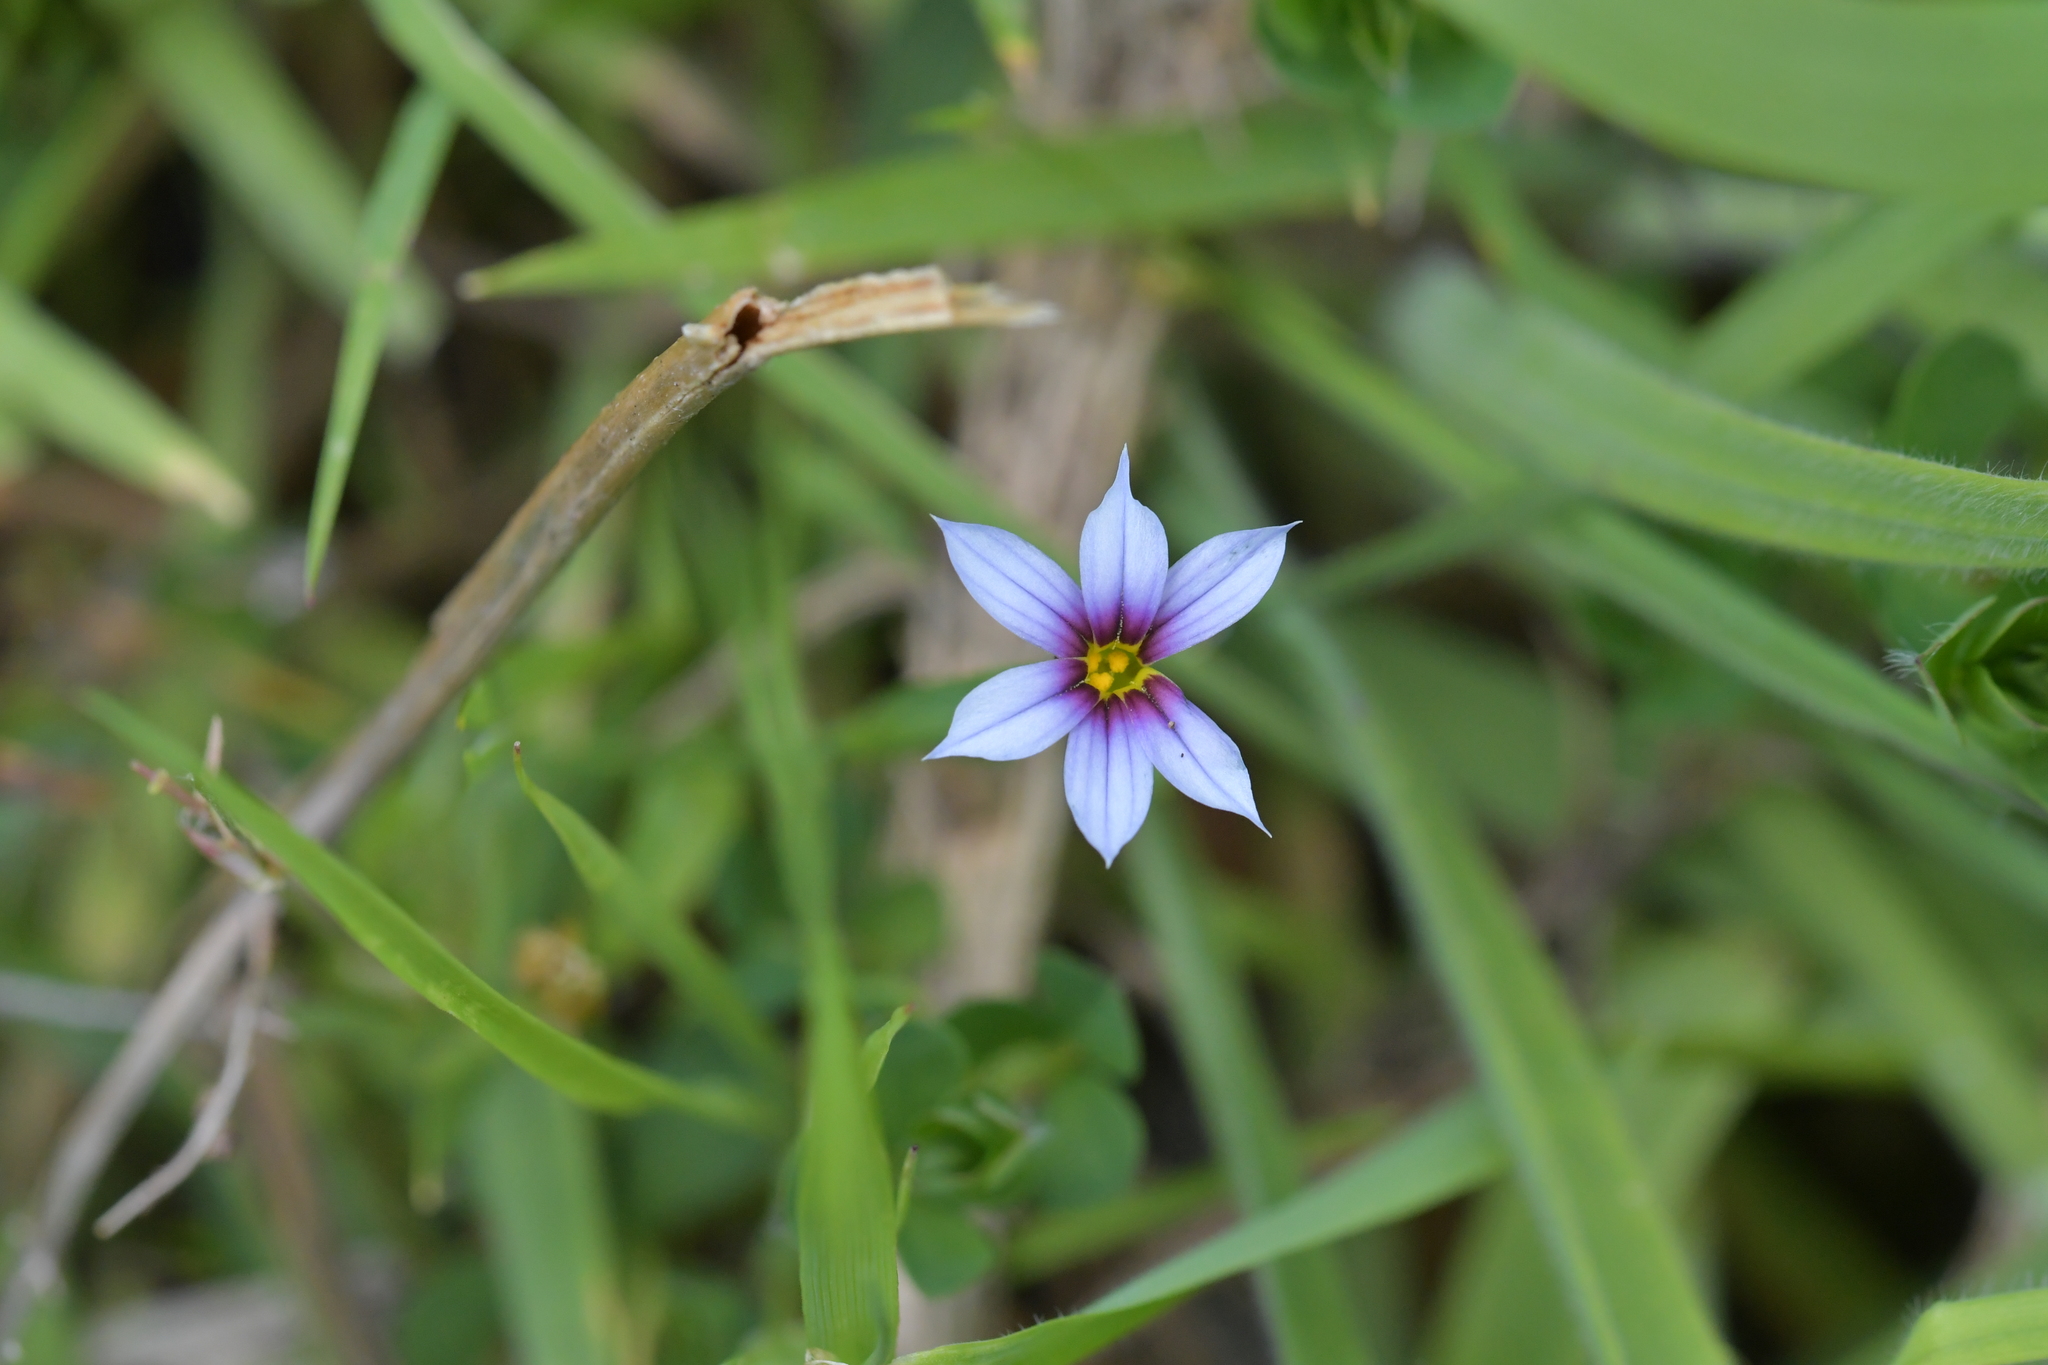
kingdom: Plantae
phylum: Tracheophyta
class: Liliopsida
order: Asparagales
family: Iridaceae
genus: Sisyrinchium
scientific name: Sisyrinchium micranthum
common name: Bermuda pigroot
